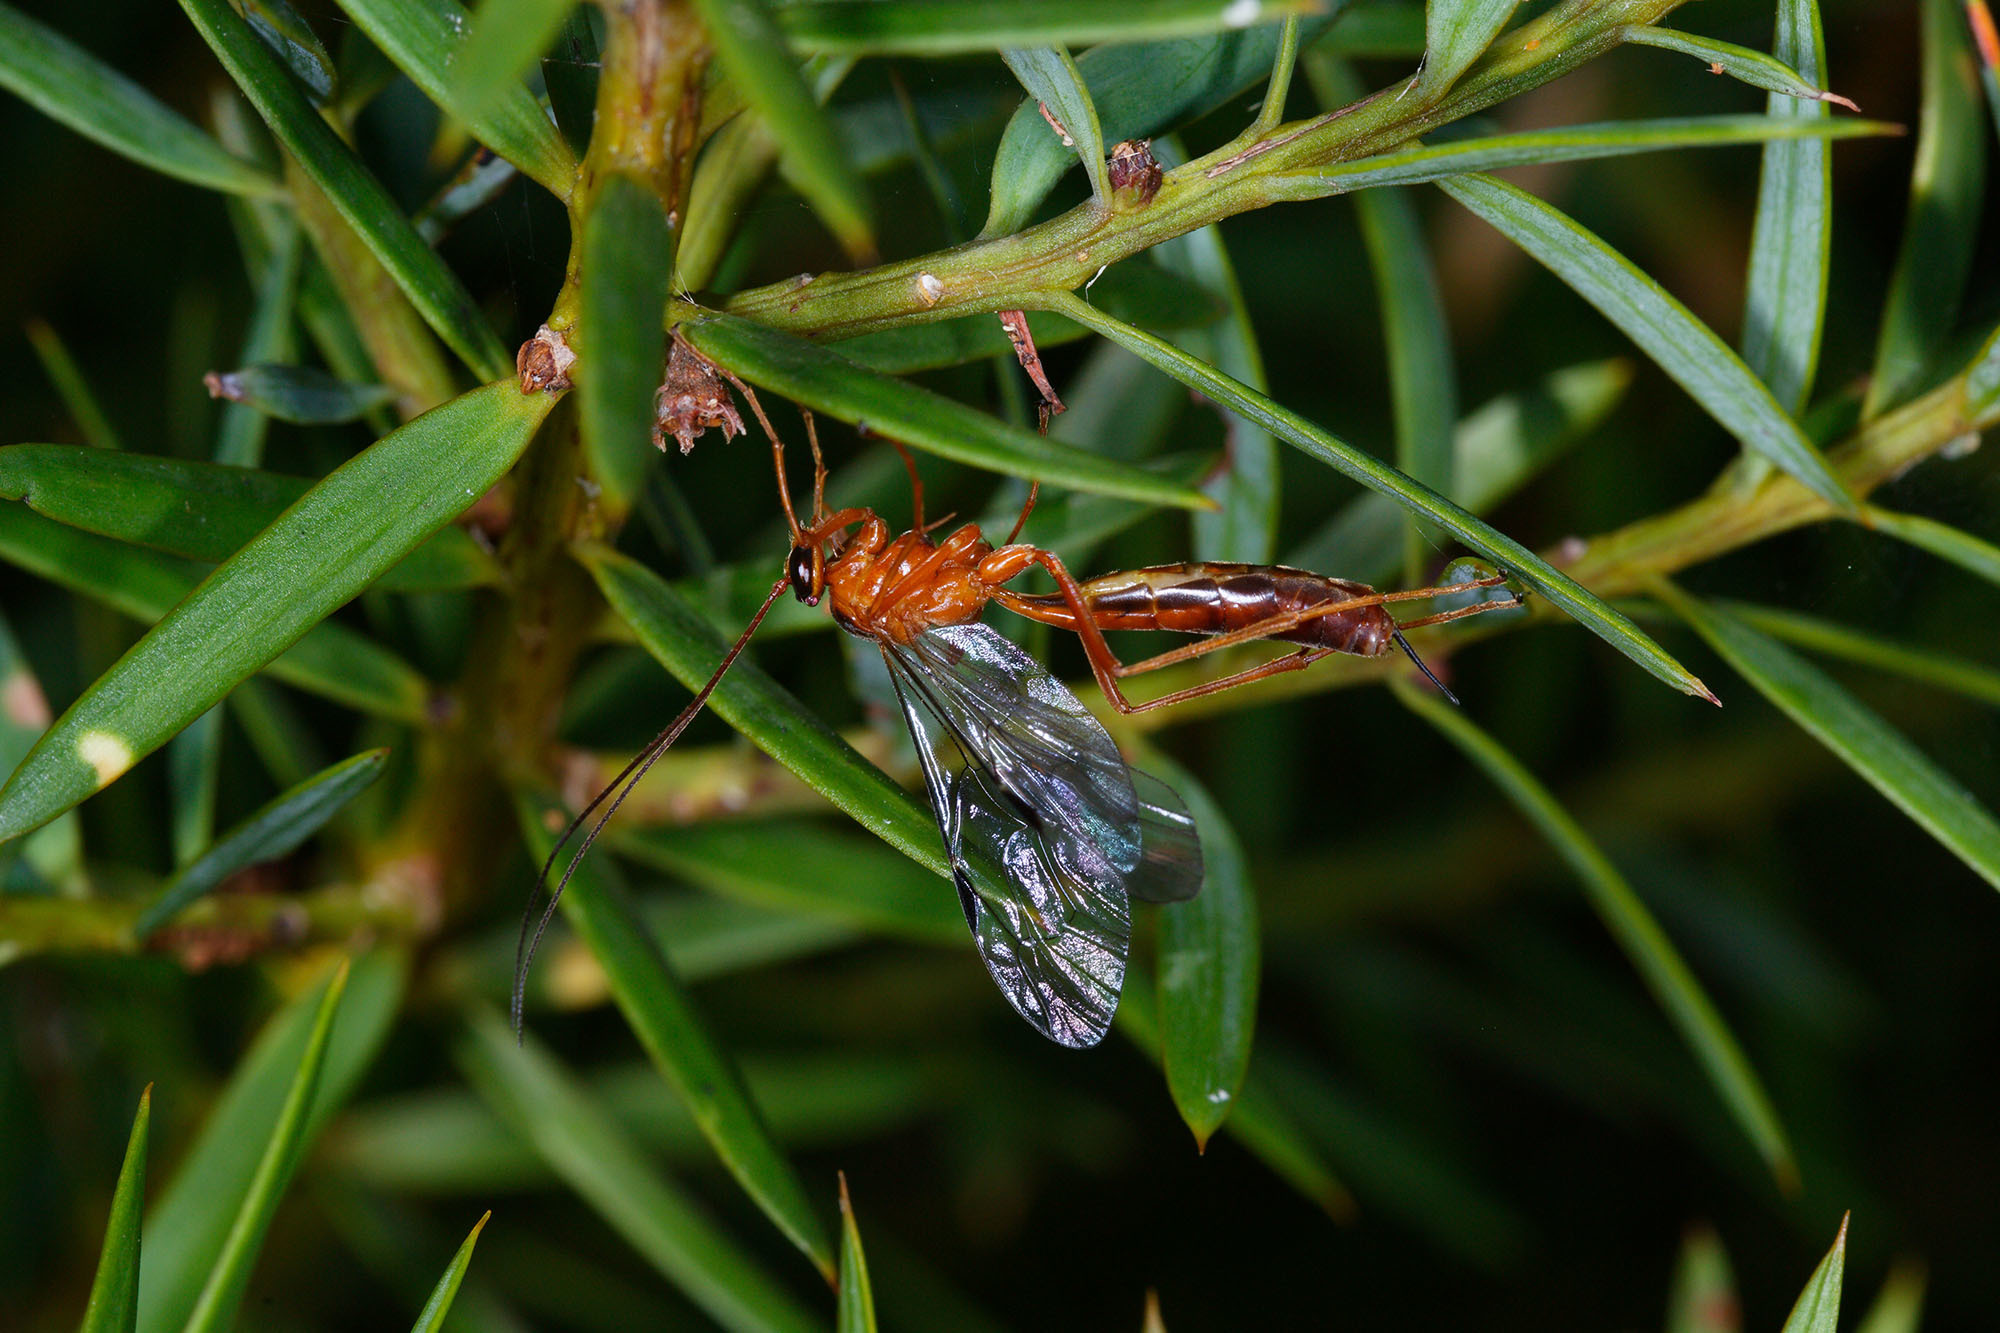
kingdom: Animalia
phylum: Arthropoda
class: Insecta
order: Hymenoptera
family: Ichneumonidae
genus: Netelia
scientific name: Netelia ephippiata
